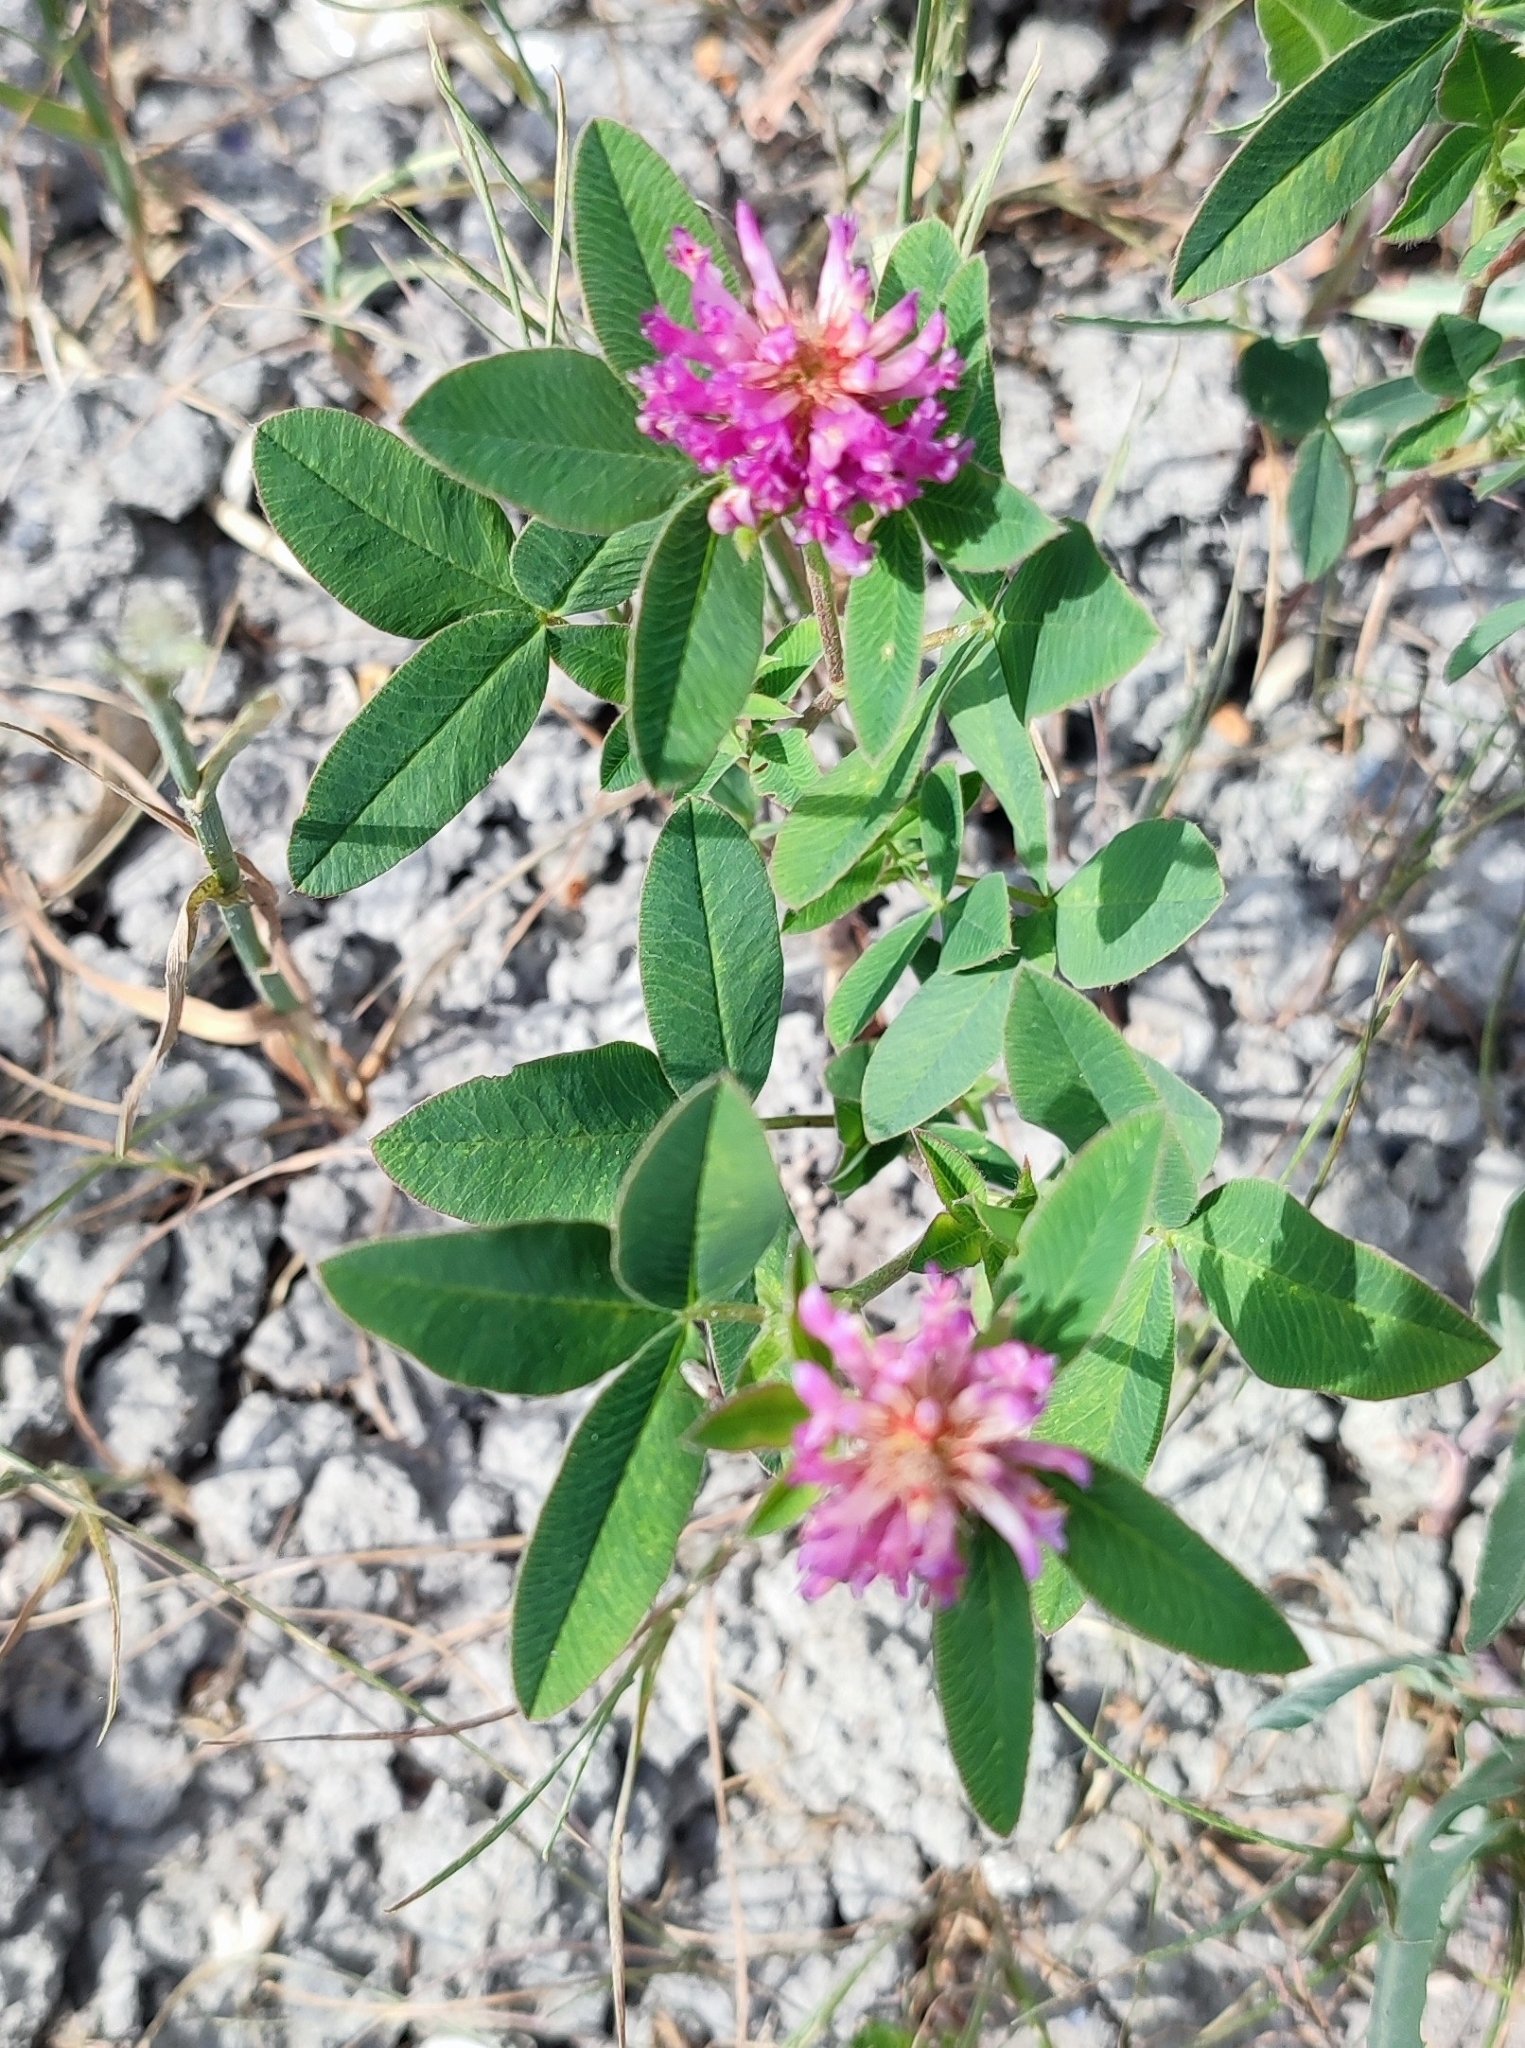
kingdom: Plantae
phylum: Tracheophyta
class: Magnoliopsida
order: Fabales
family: Fabaceae
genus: Trifolium
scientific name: Trifolium medium
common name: Zigzag clover
